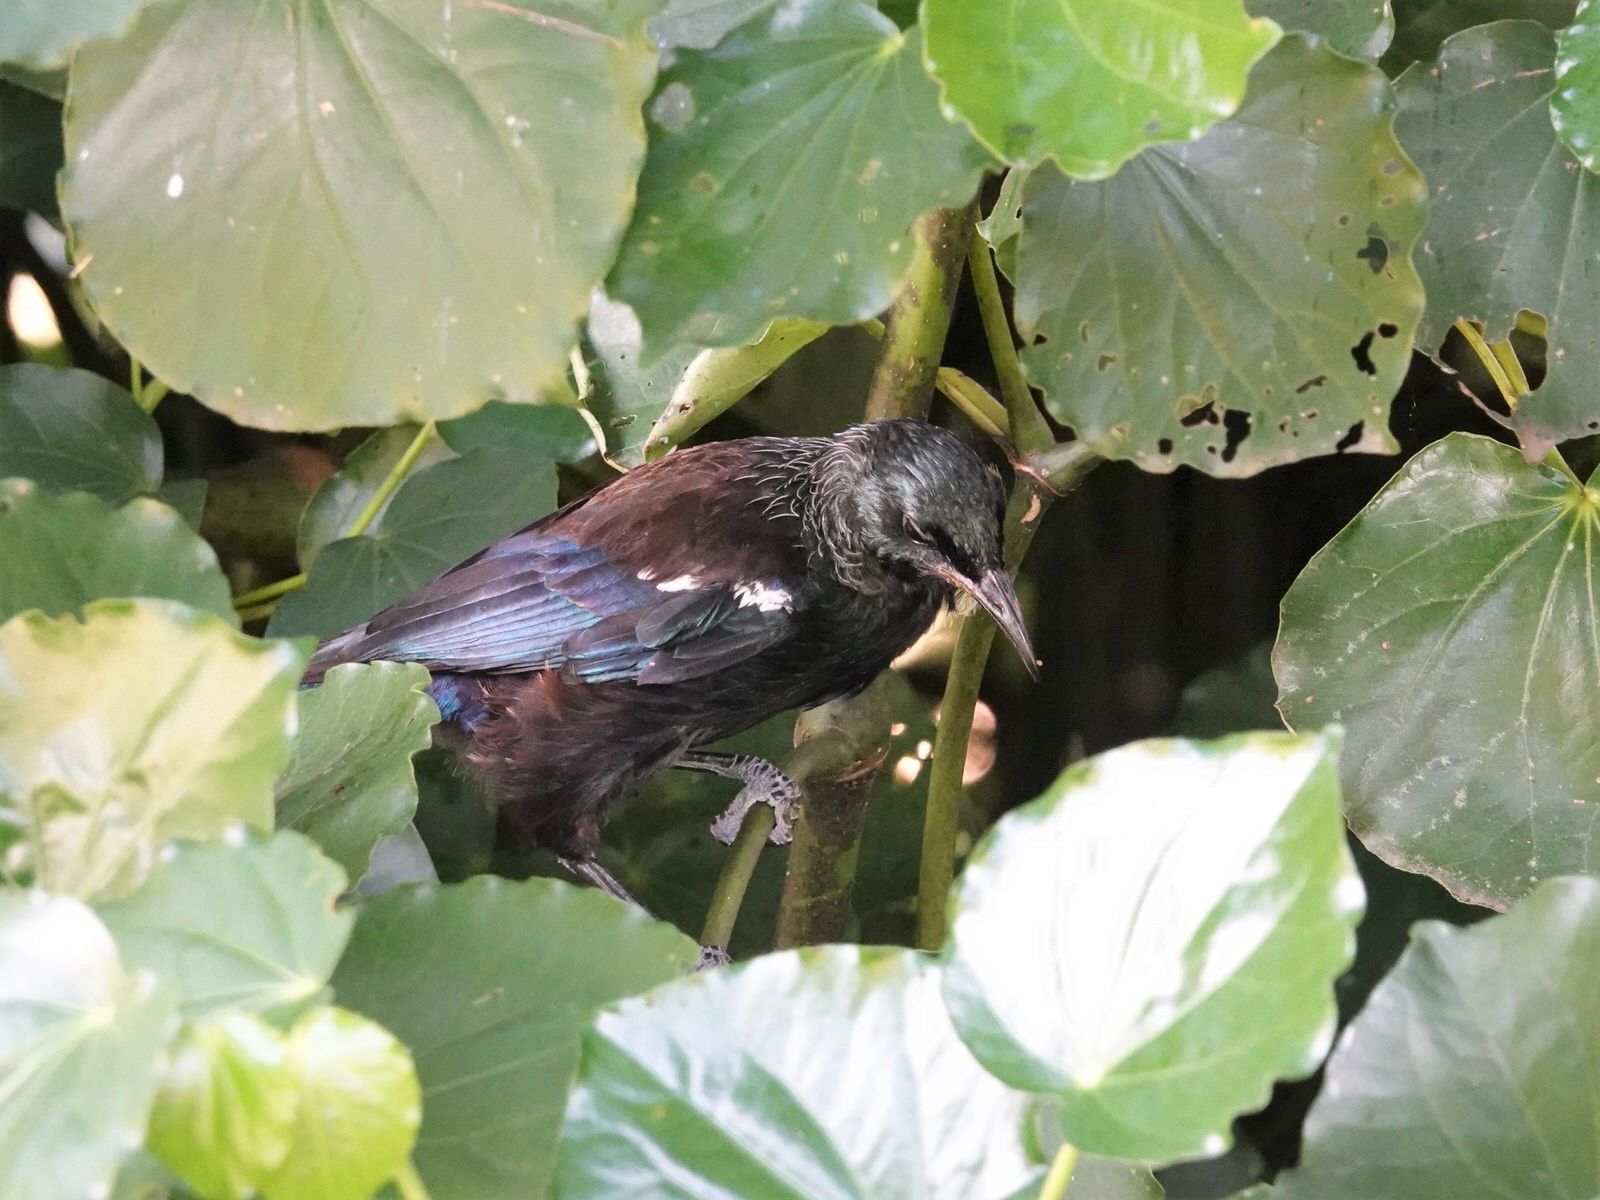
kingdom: Animalia
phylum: Chordata
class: Aves
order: Passeriformes
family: Meliphagidae
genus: Prosthemadera
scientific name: Prosthemadera novaeseelandiae
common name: Tui
